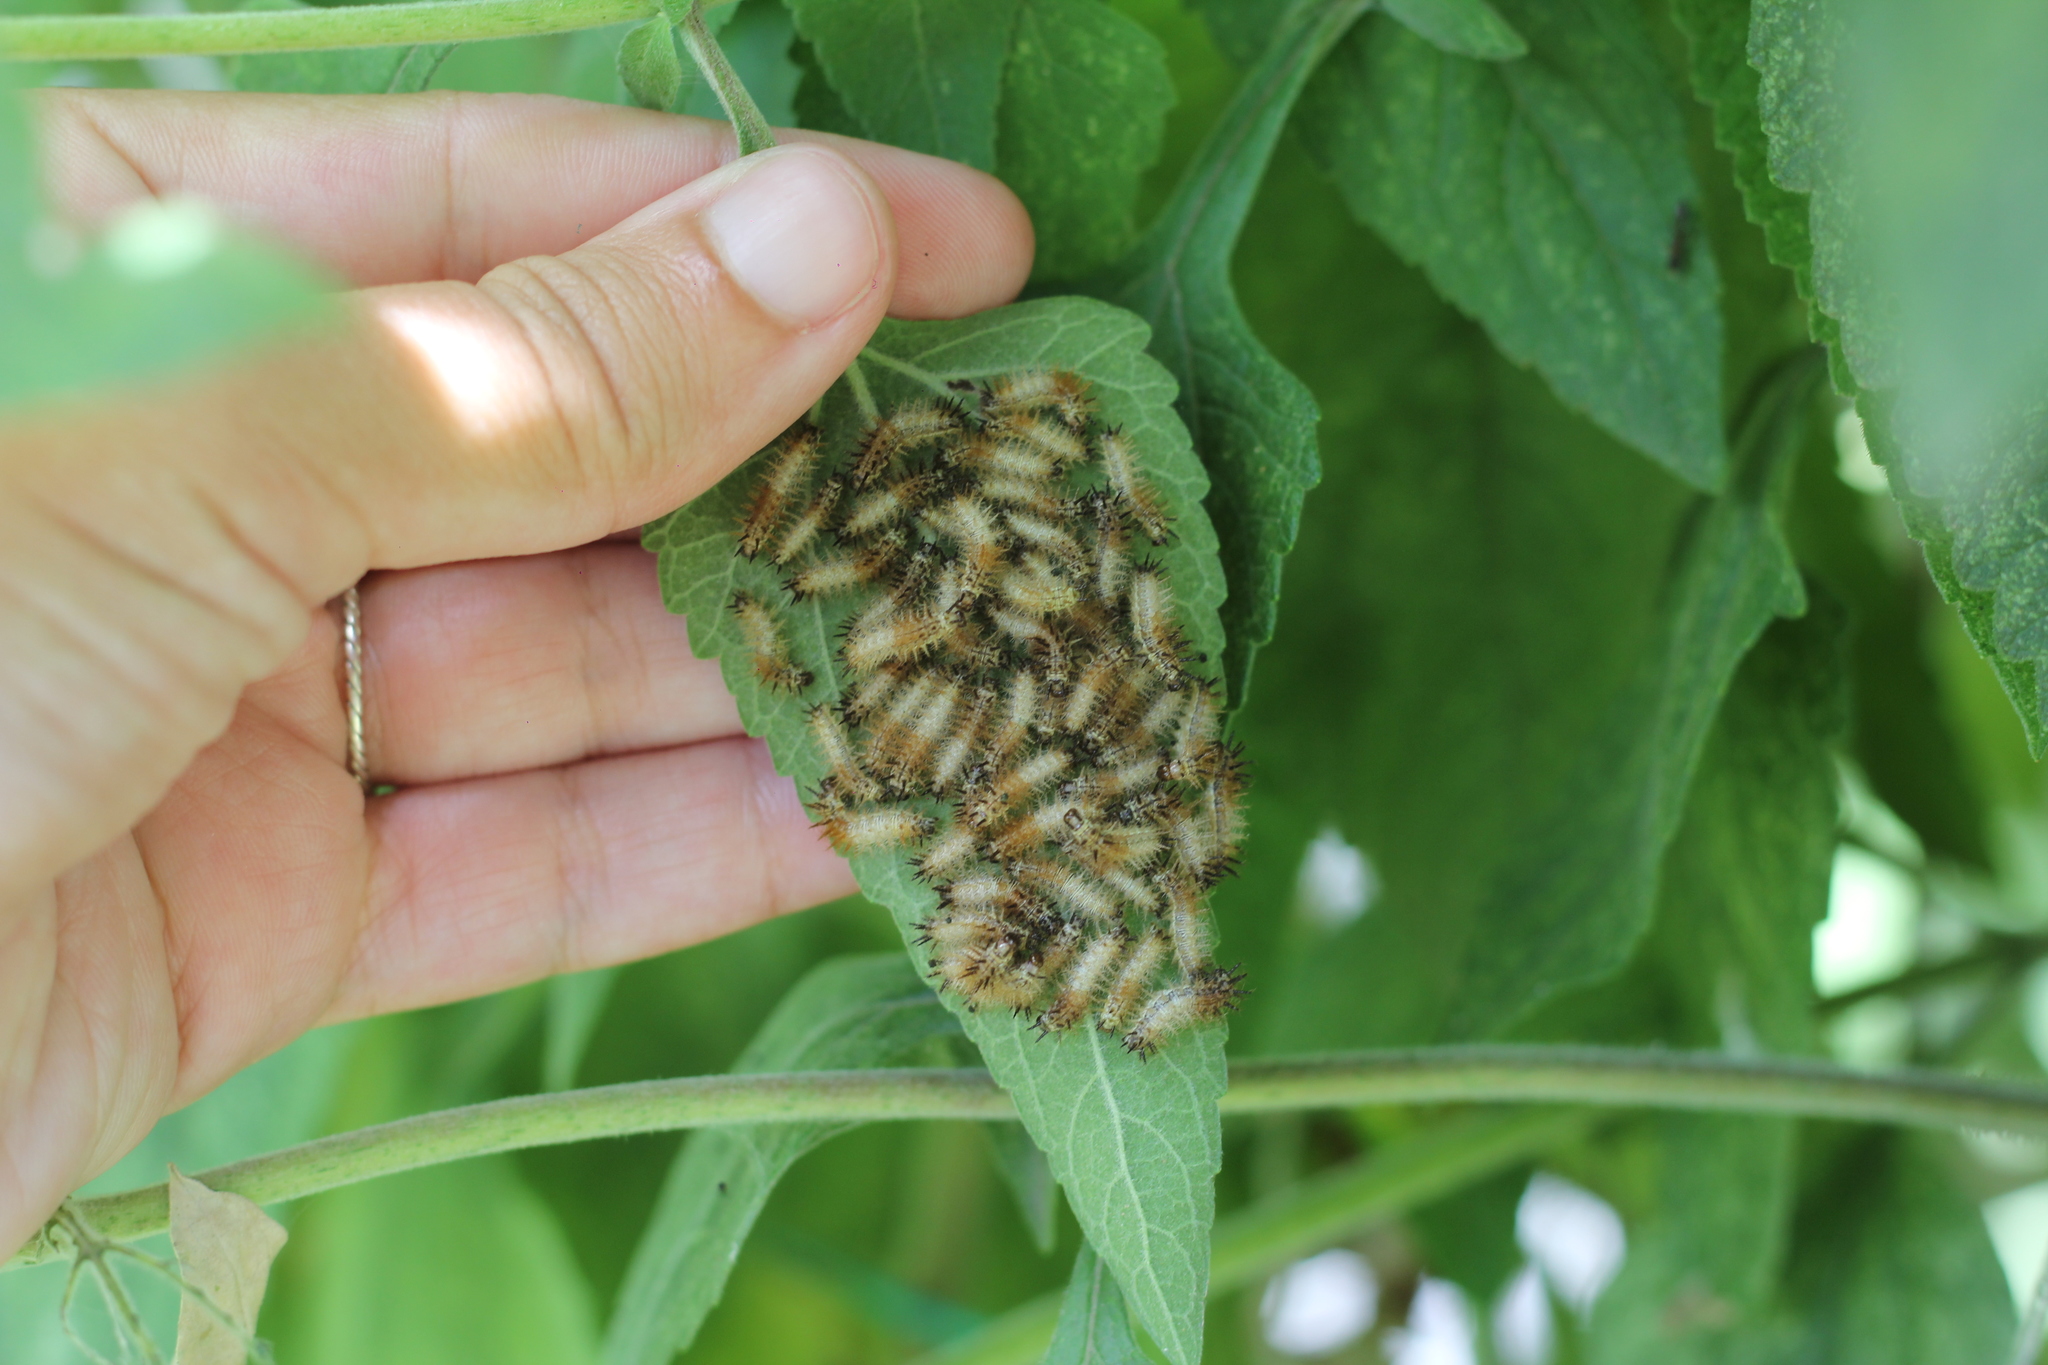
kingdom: Animalia
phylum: Arthropoda
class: Insecta
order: Lepidoptera
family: Nymphalidae
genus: Actinote
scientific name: Actinote
